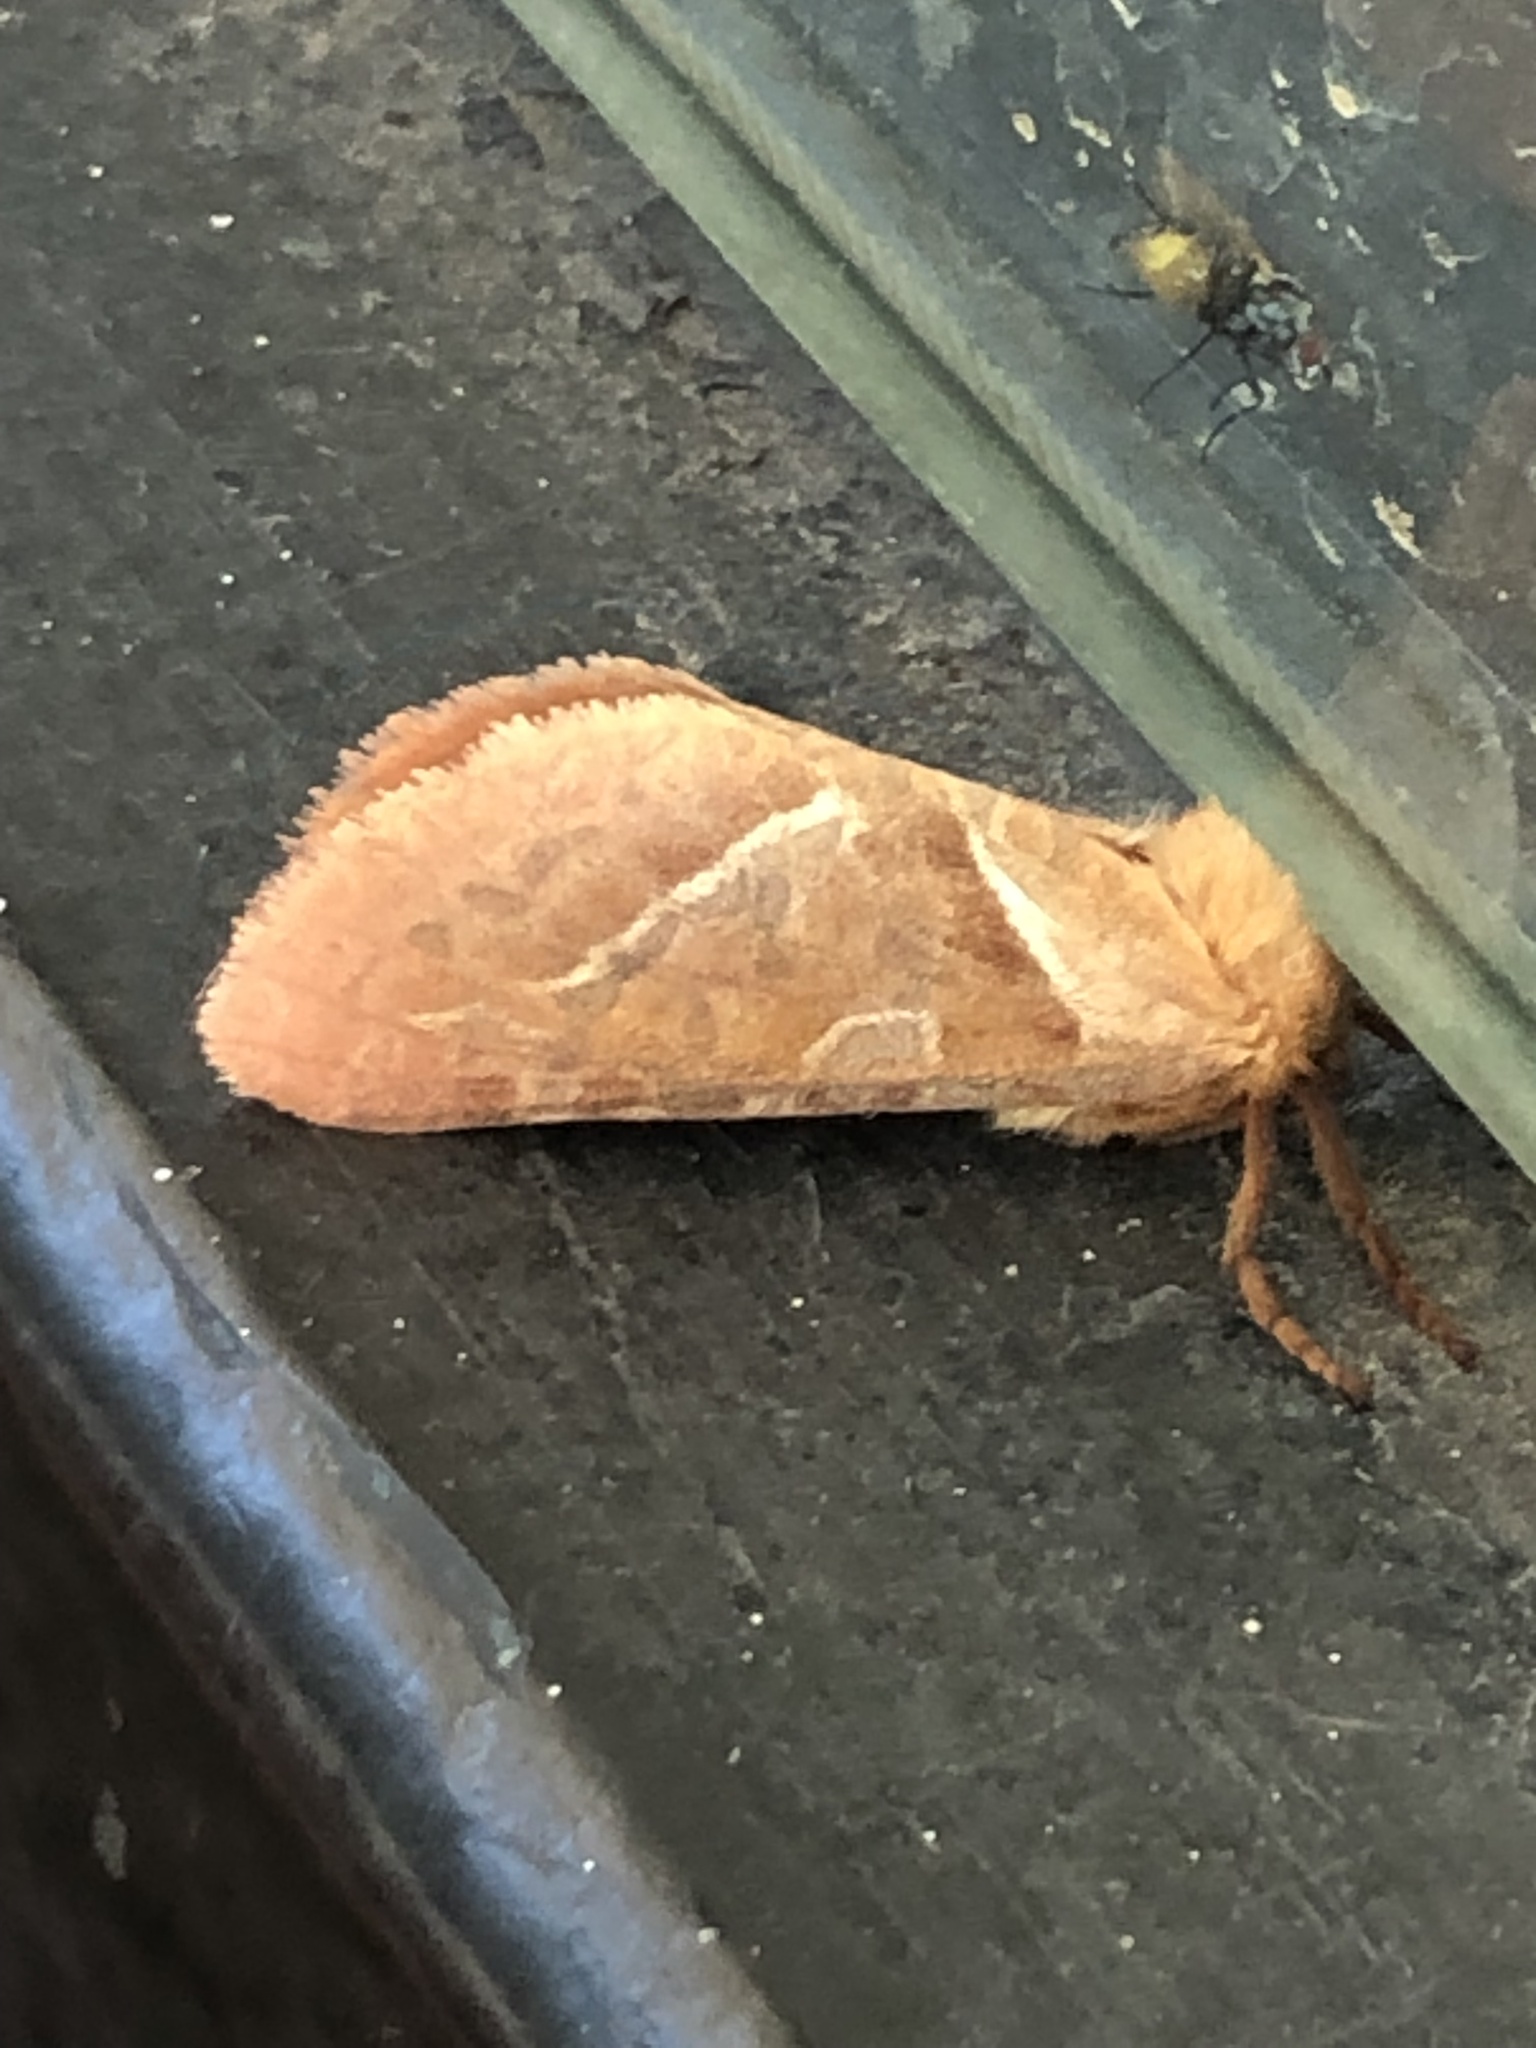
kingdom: Animalia
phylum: Arthropoda
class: Insecta
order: Lepidoptera
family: Hepialidae
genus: Triodia
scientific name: Triodia sylvina
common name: Orange swift
